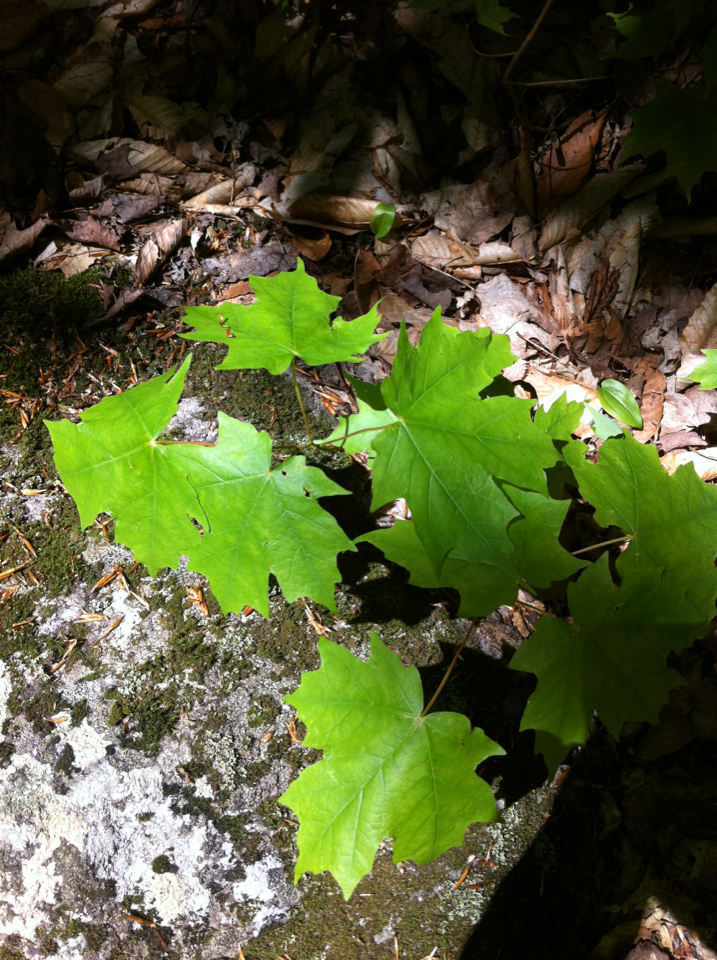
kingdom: Plantae
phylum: Tracheophyta
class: Magnoliopsida
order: Sapindales
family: Sapindaceae
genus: Acer
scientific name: Acer saccharum
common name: Sugar maple
